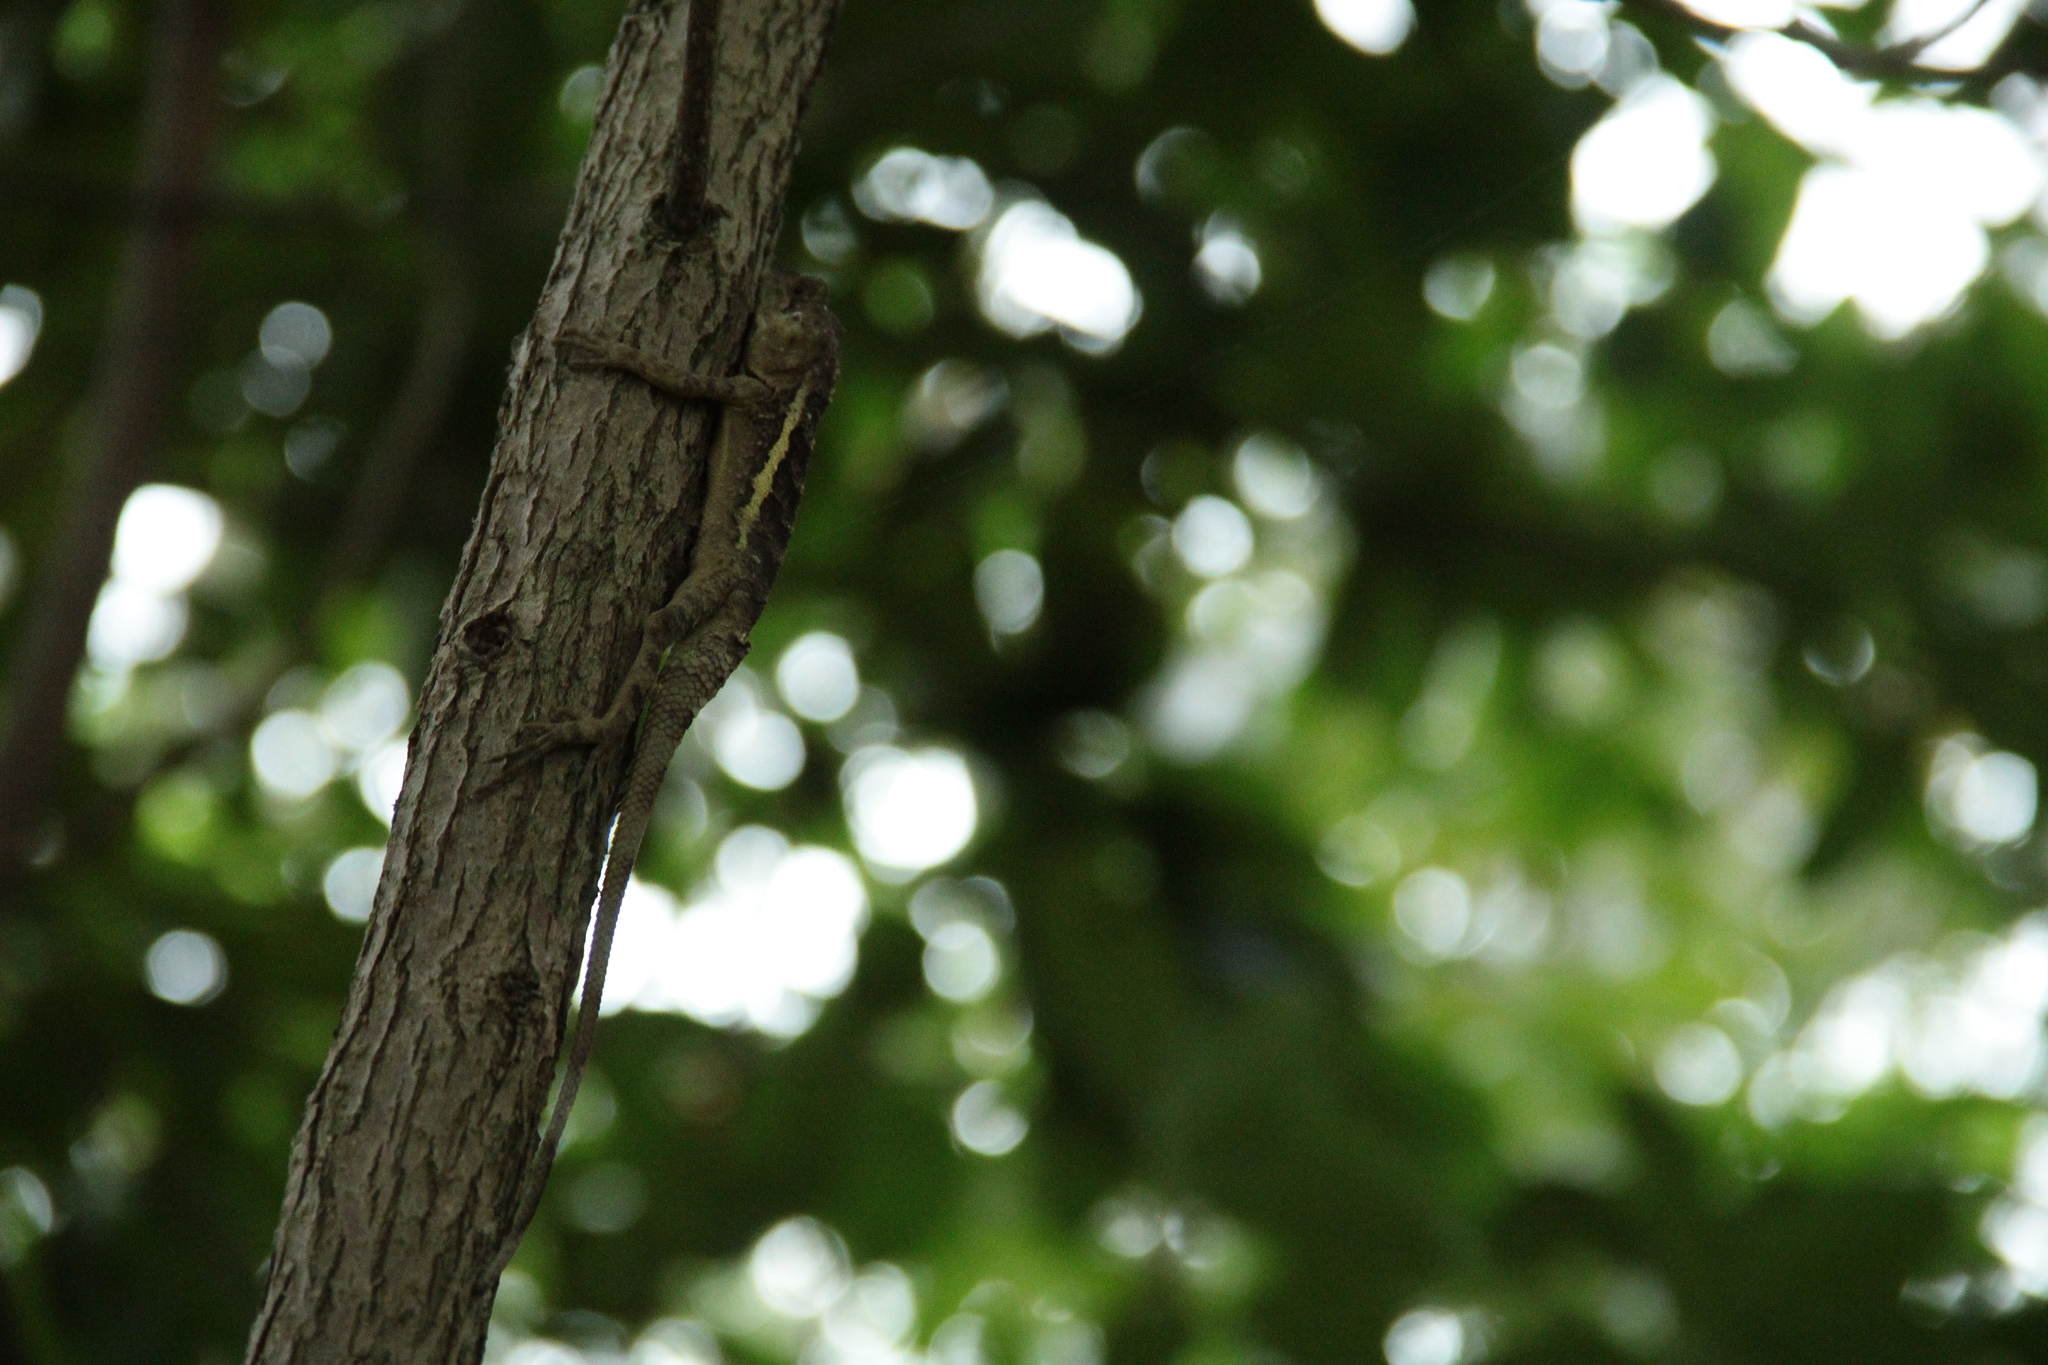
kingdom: Animalia
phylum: Chordata
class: Squamata
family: Agamidae
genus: Diploderma
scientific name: Diploderma swinhonis
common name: Taiwan japalure
